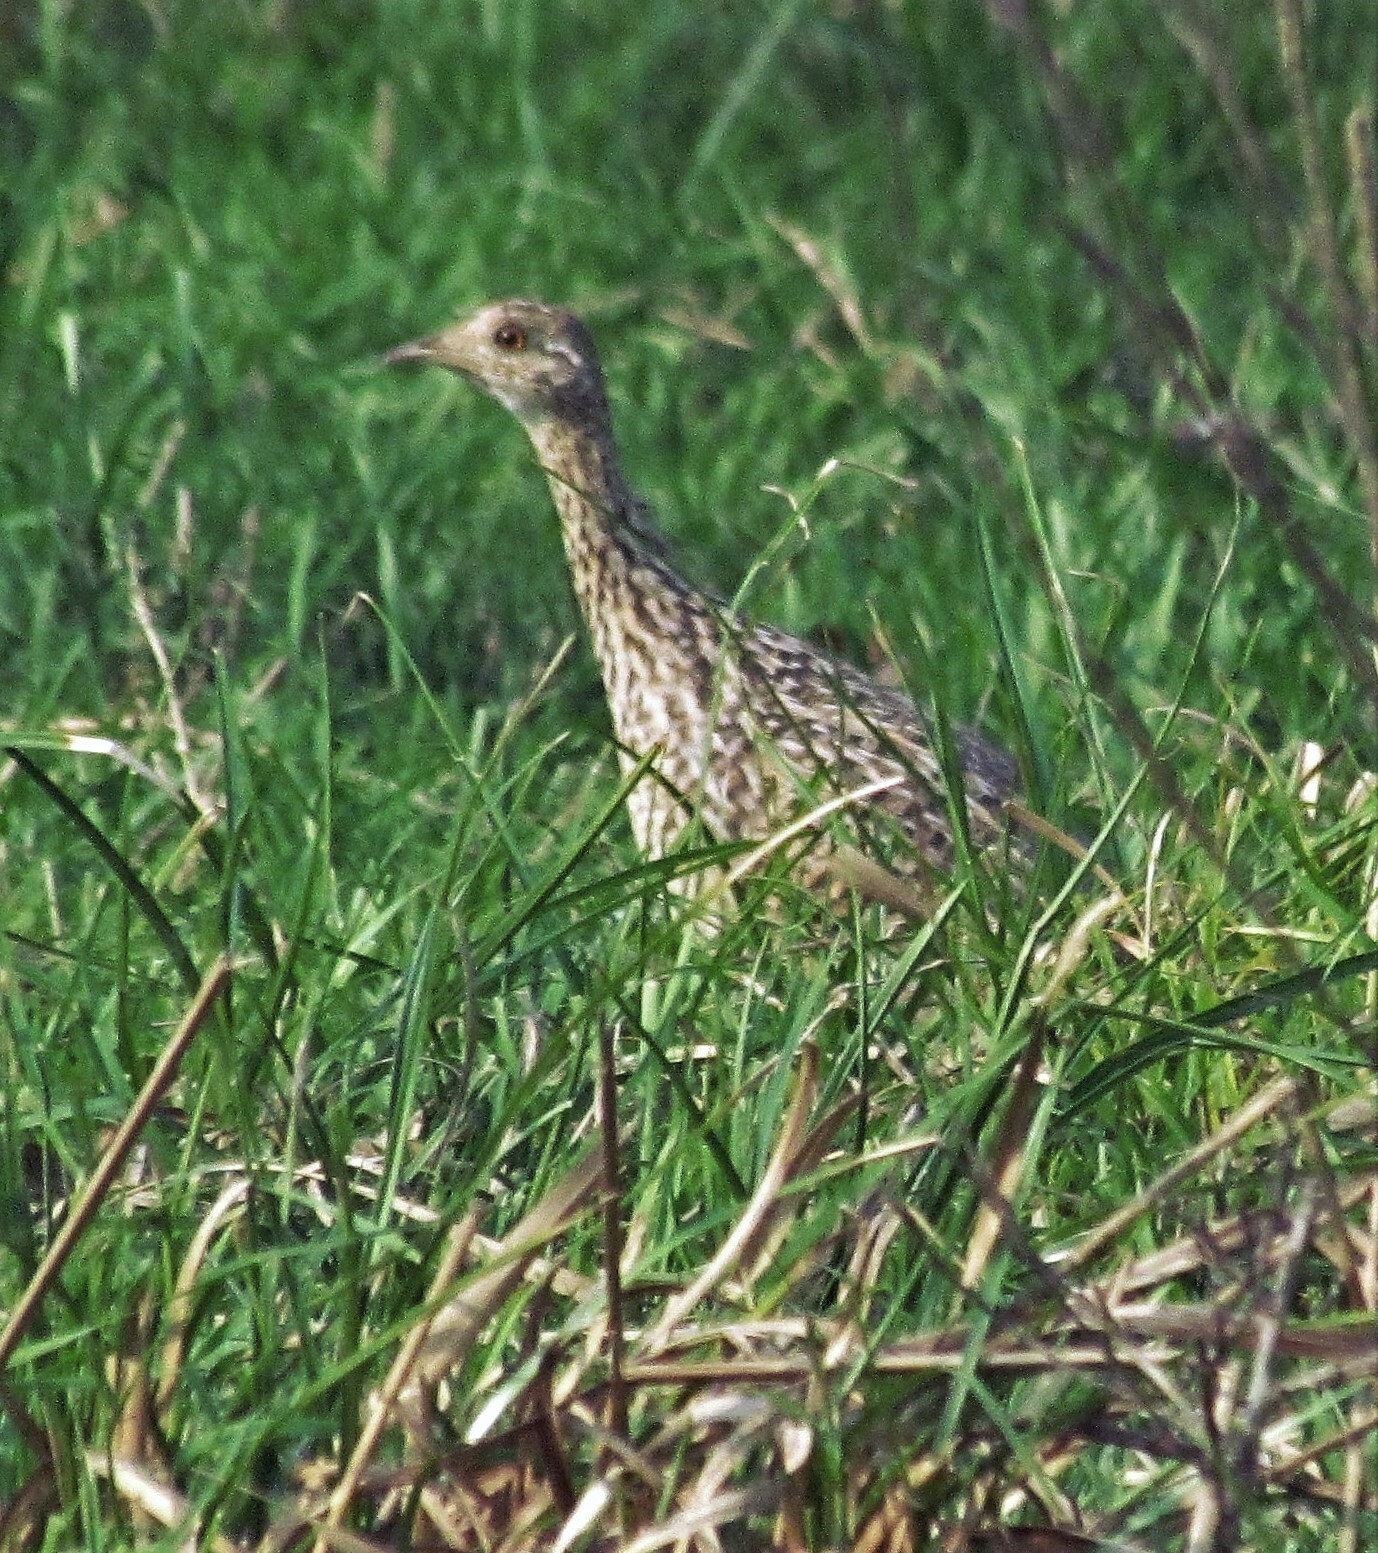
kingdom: Animalia
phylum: Chordata
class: Aves
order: Tinamiformes
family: Tinamidae
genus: Nothura
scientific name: Nothura maculosa
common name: Spotted nothura
